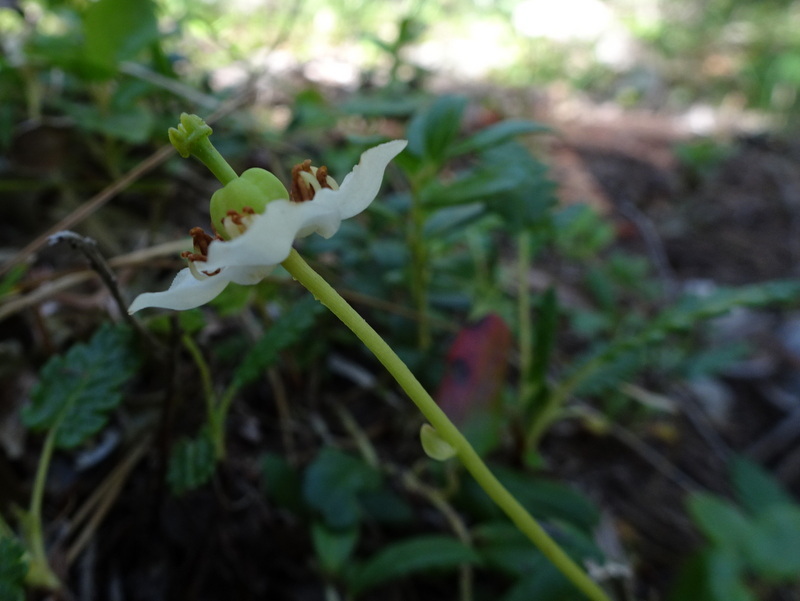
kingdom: Plantae
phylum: Tracheophyta
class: Magnoliopsida
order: Ericales
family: Ericaceae
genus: Moneses
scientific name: Moneses uniflora
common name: One-flowered wintergreen
